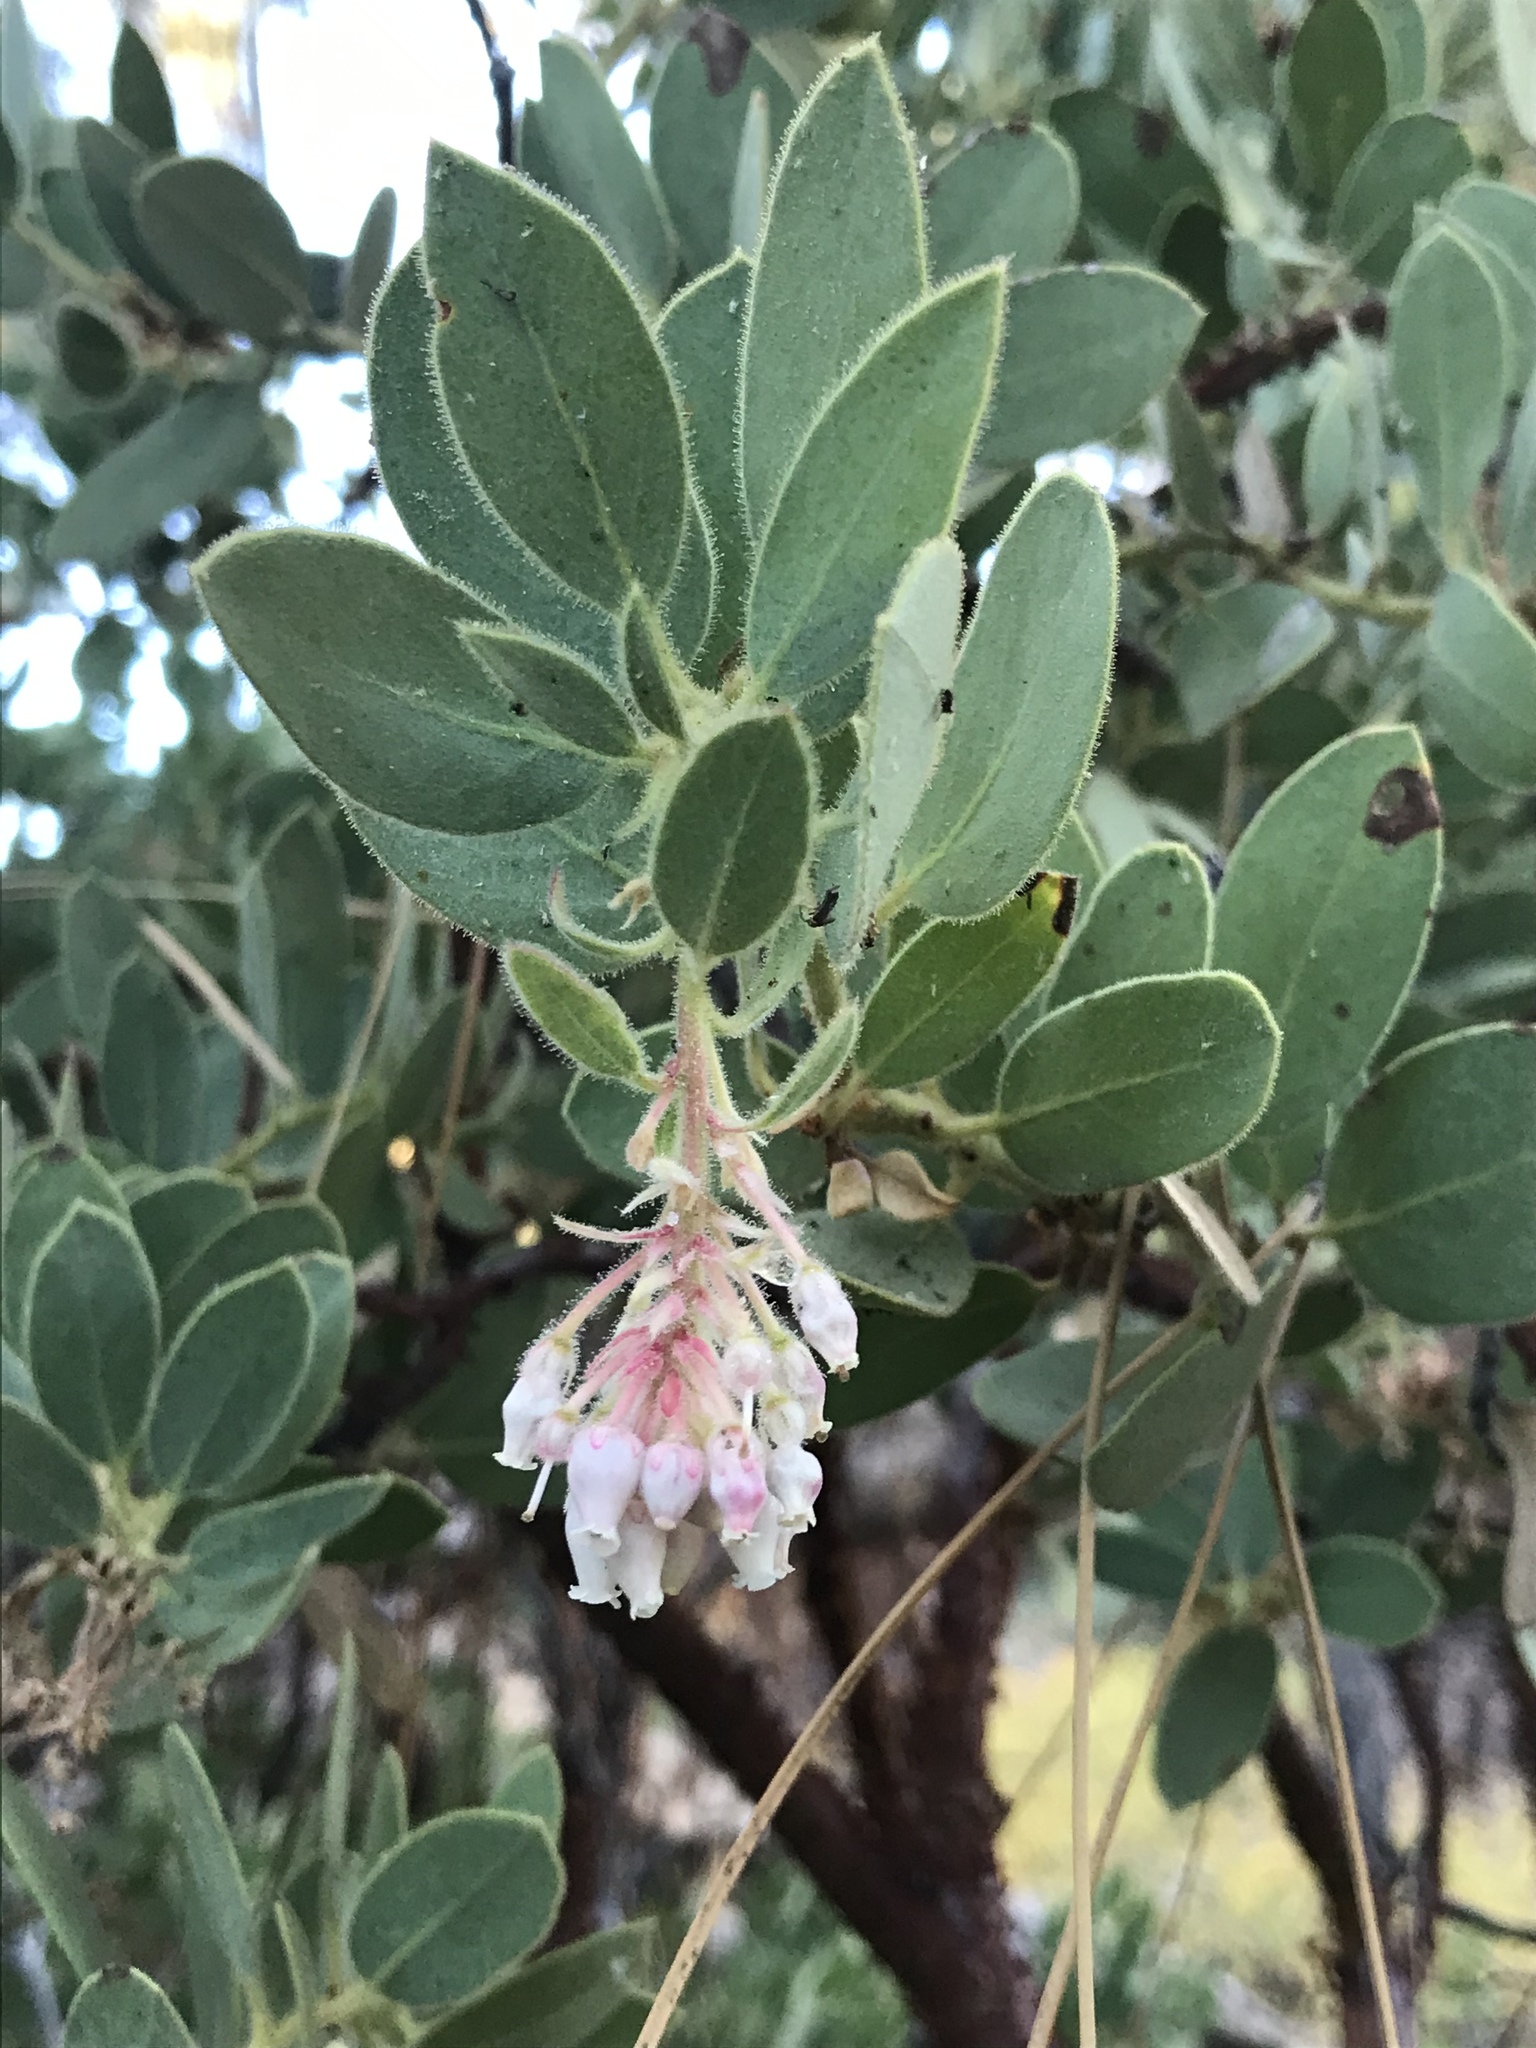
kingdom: Plantae
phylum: Tracheophyta
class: Magnoliopsida
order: Ericales
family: Ericaceae
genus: Arctostaphylos
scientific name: Arctostaphylos pringlei
